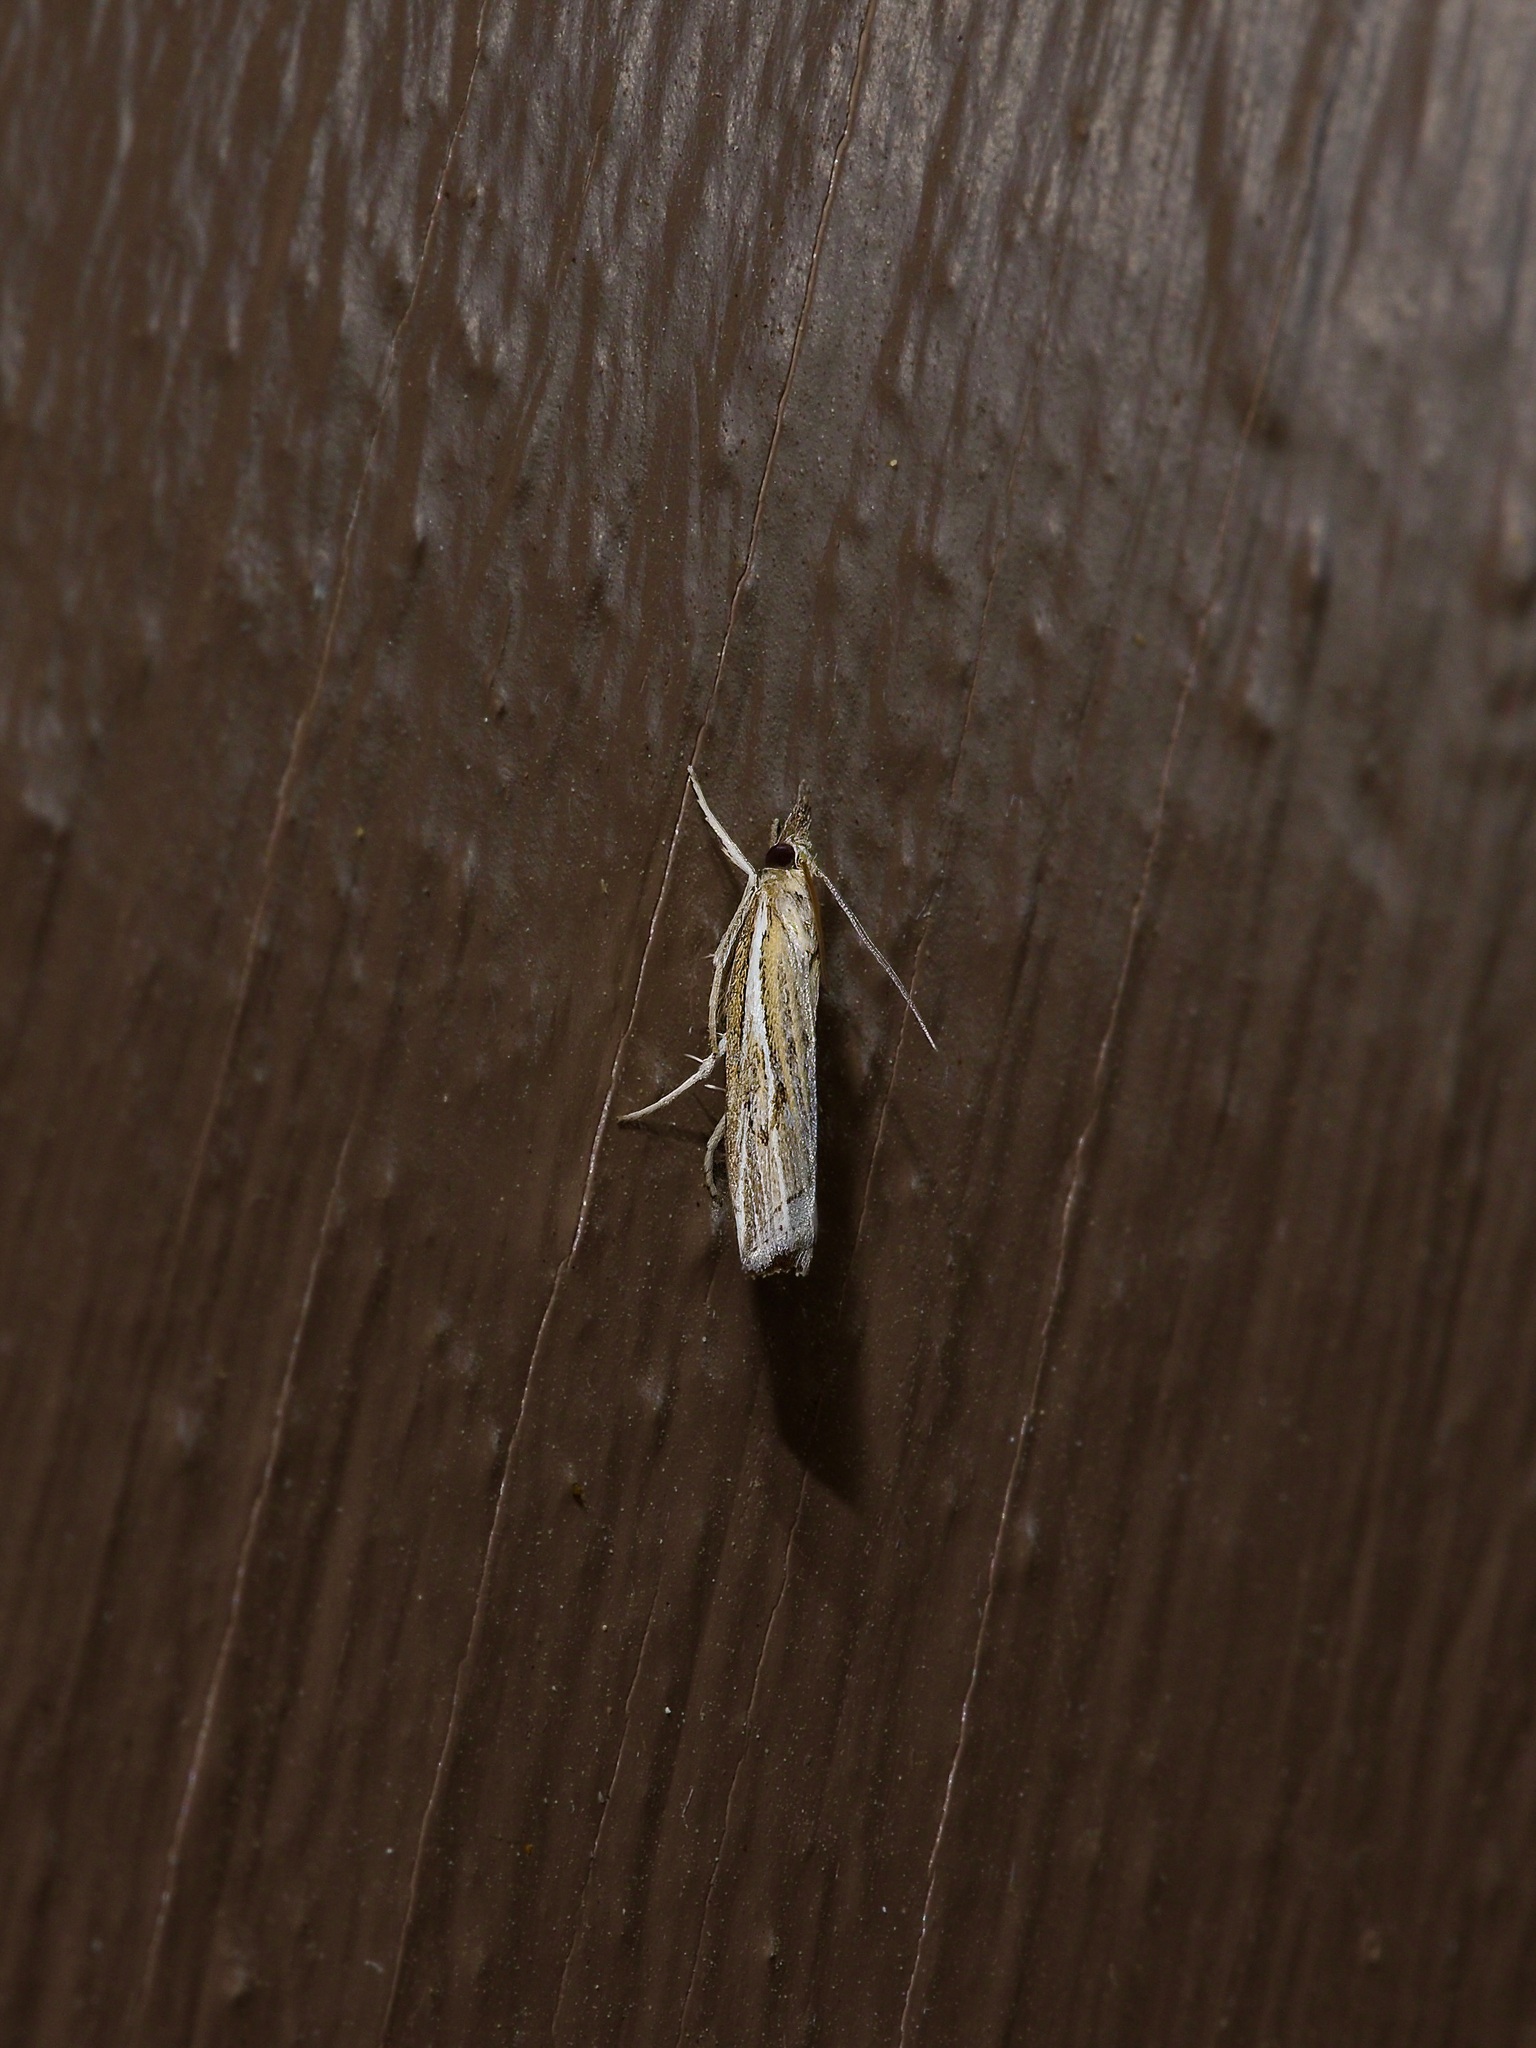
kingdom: Animalia
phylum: Arthropoda
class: Insecta
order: Lepidoptera
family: Crambidae
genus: Fissicrambus
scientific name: Fissicrambus quadrinotellus
